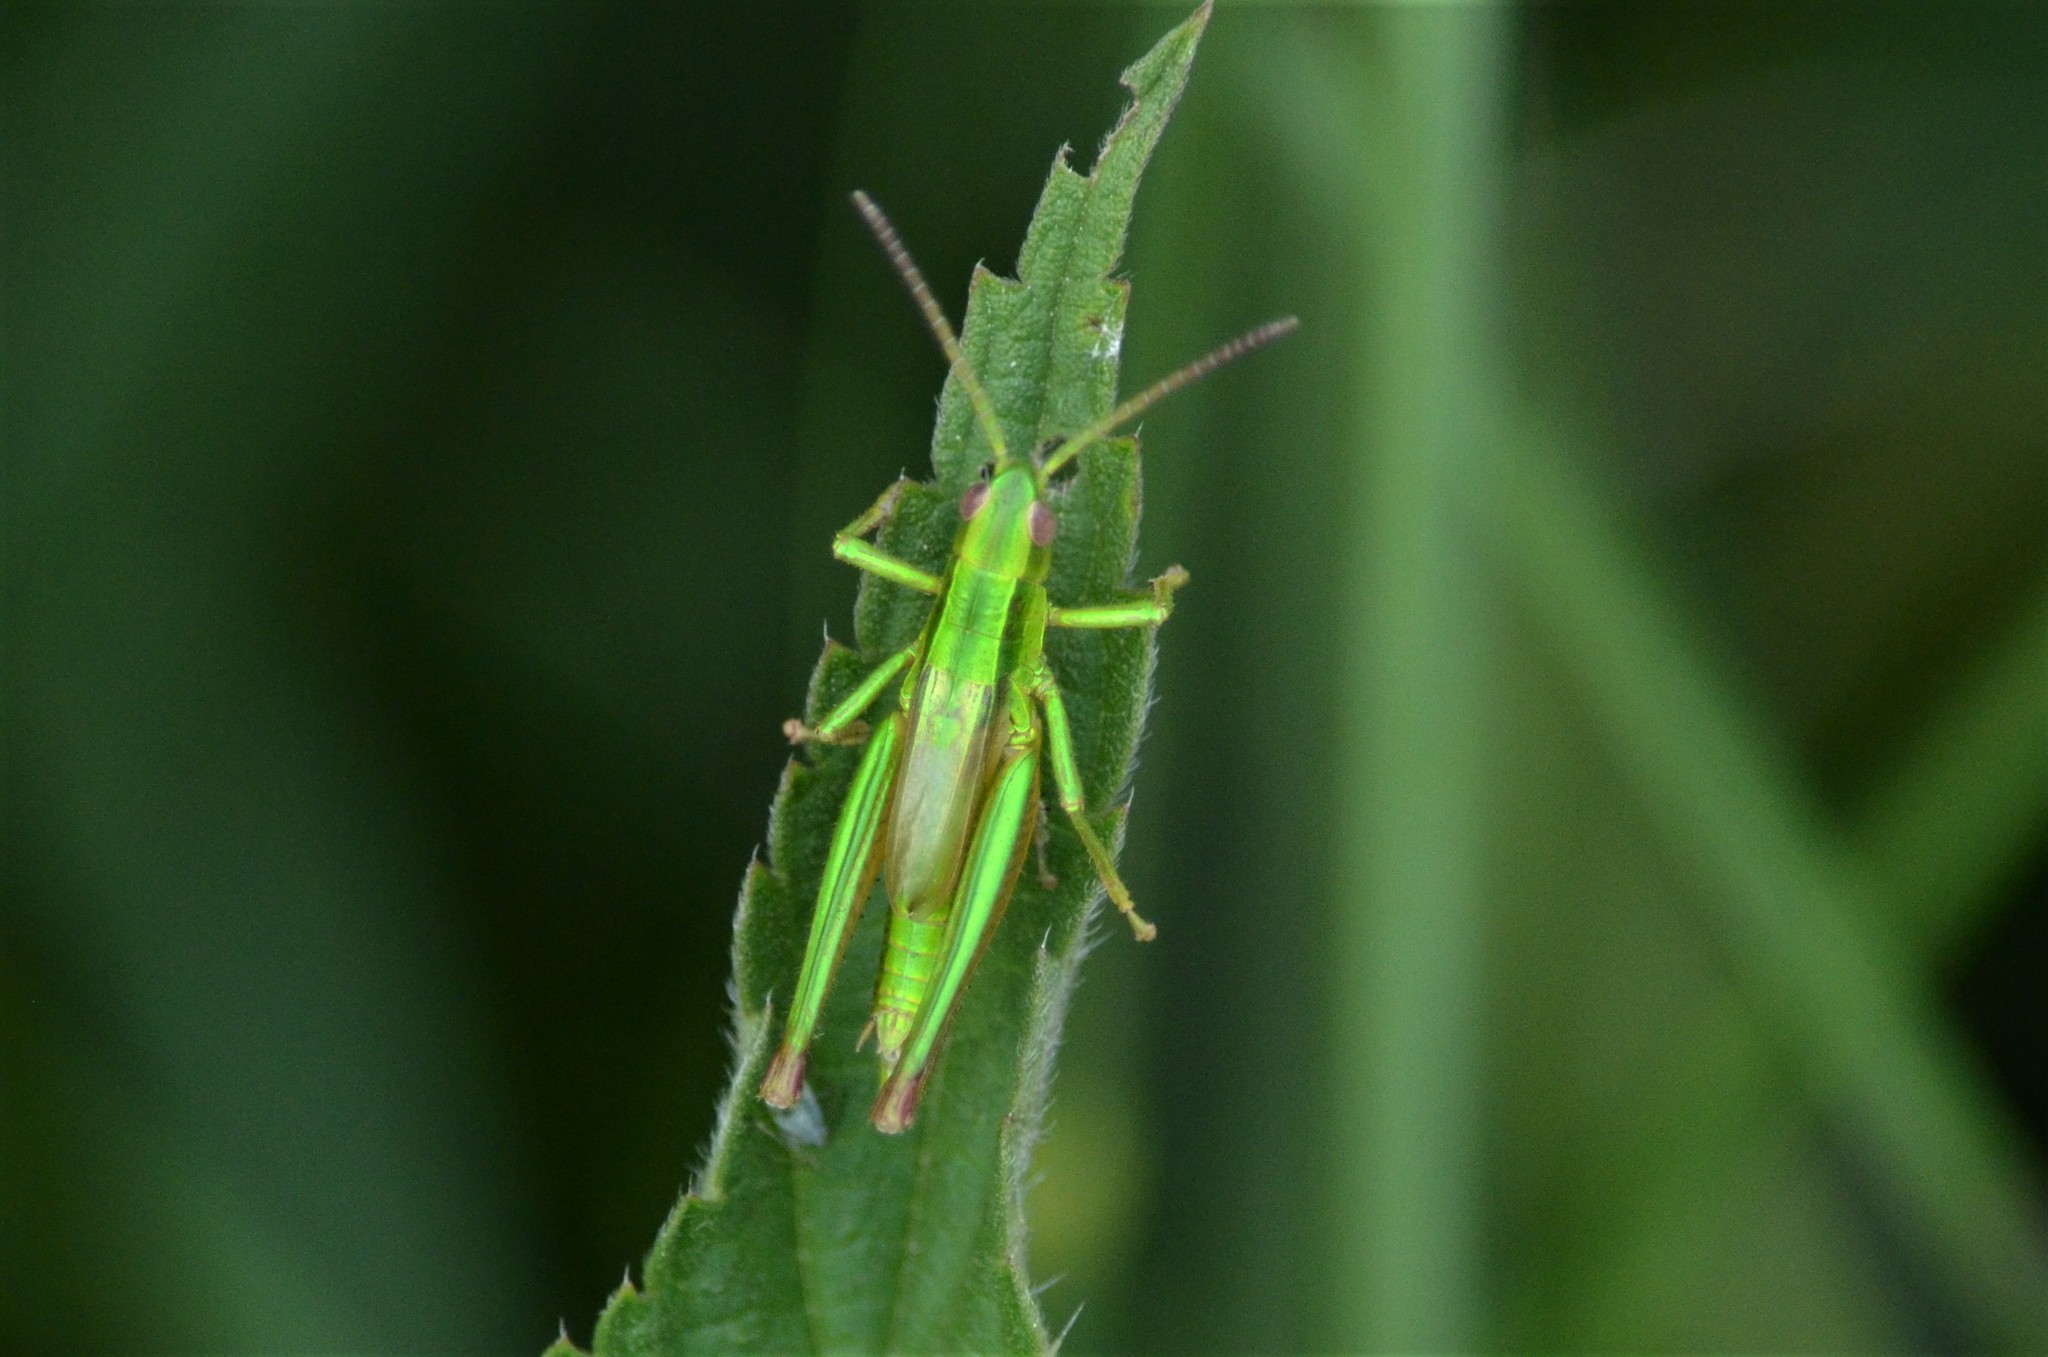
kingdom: Animalia
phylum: Arthropoda
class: Insecta
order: Orthoptera
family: Acrididae
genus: Euthystira
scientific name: Euthystira brachyptera
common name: Small gold grasshopper
